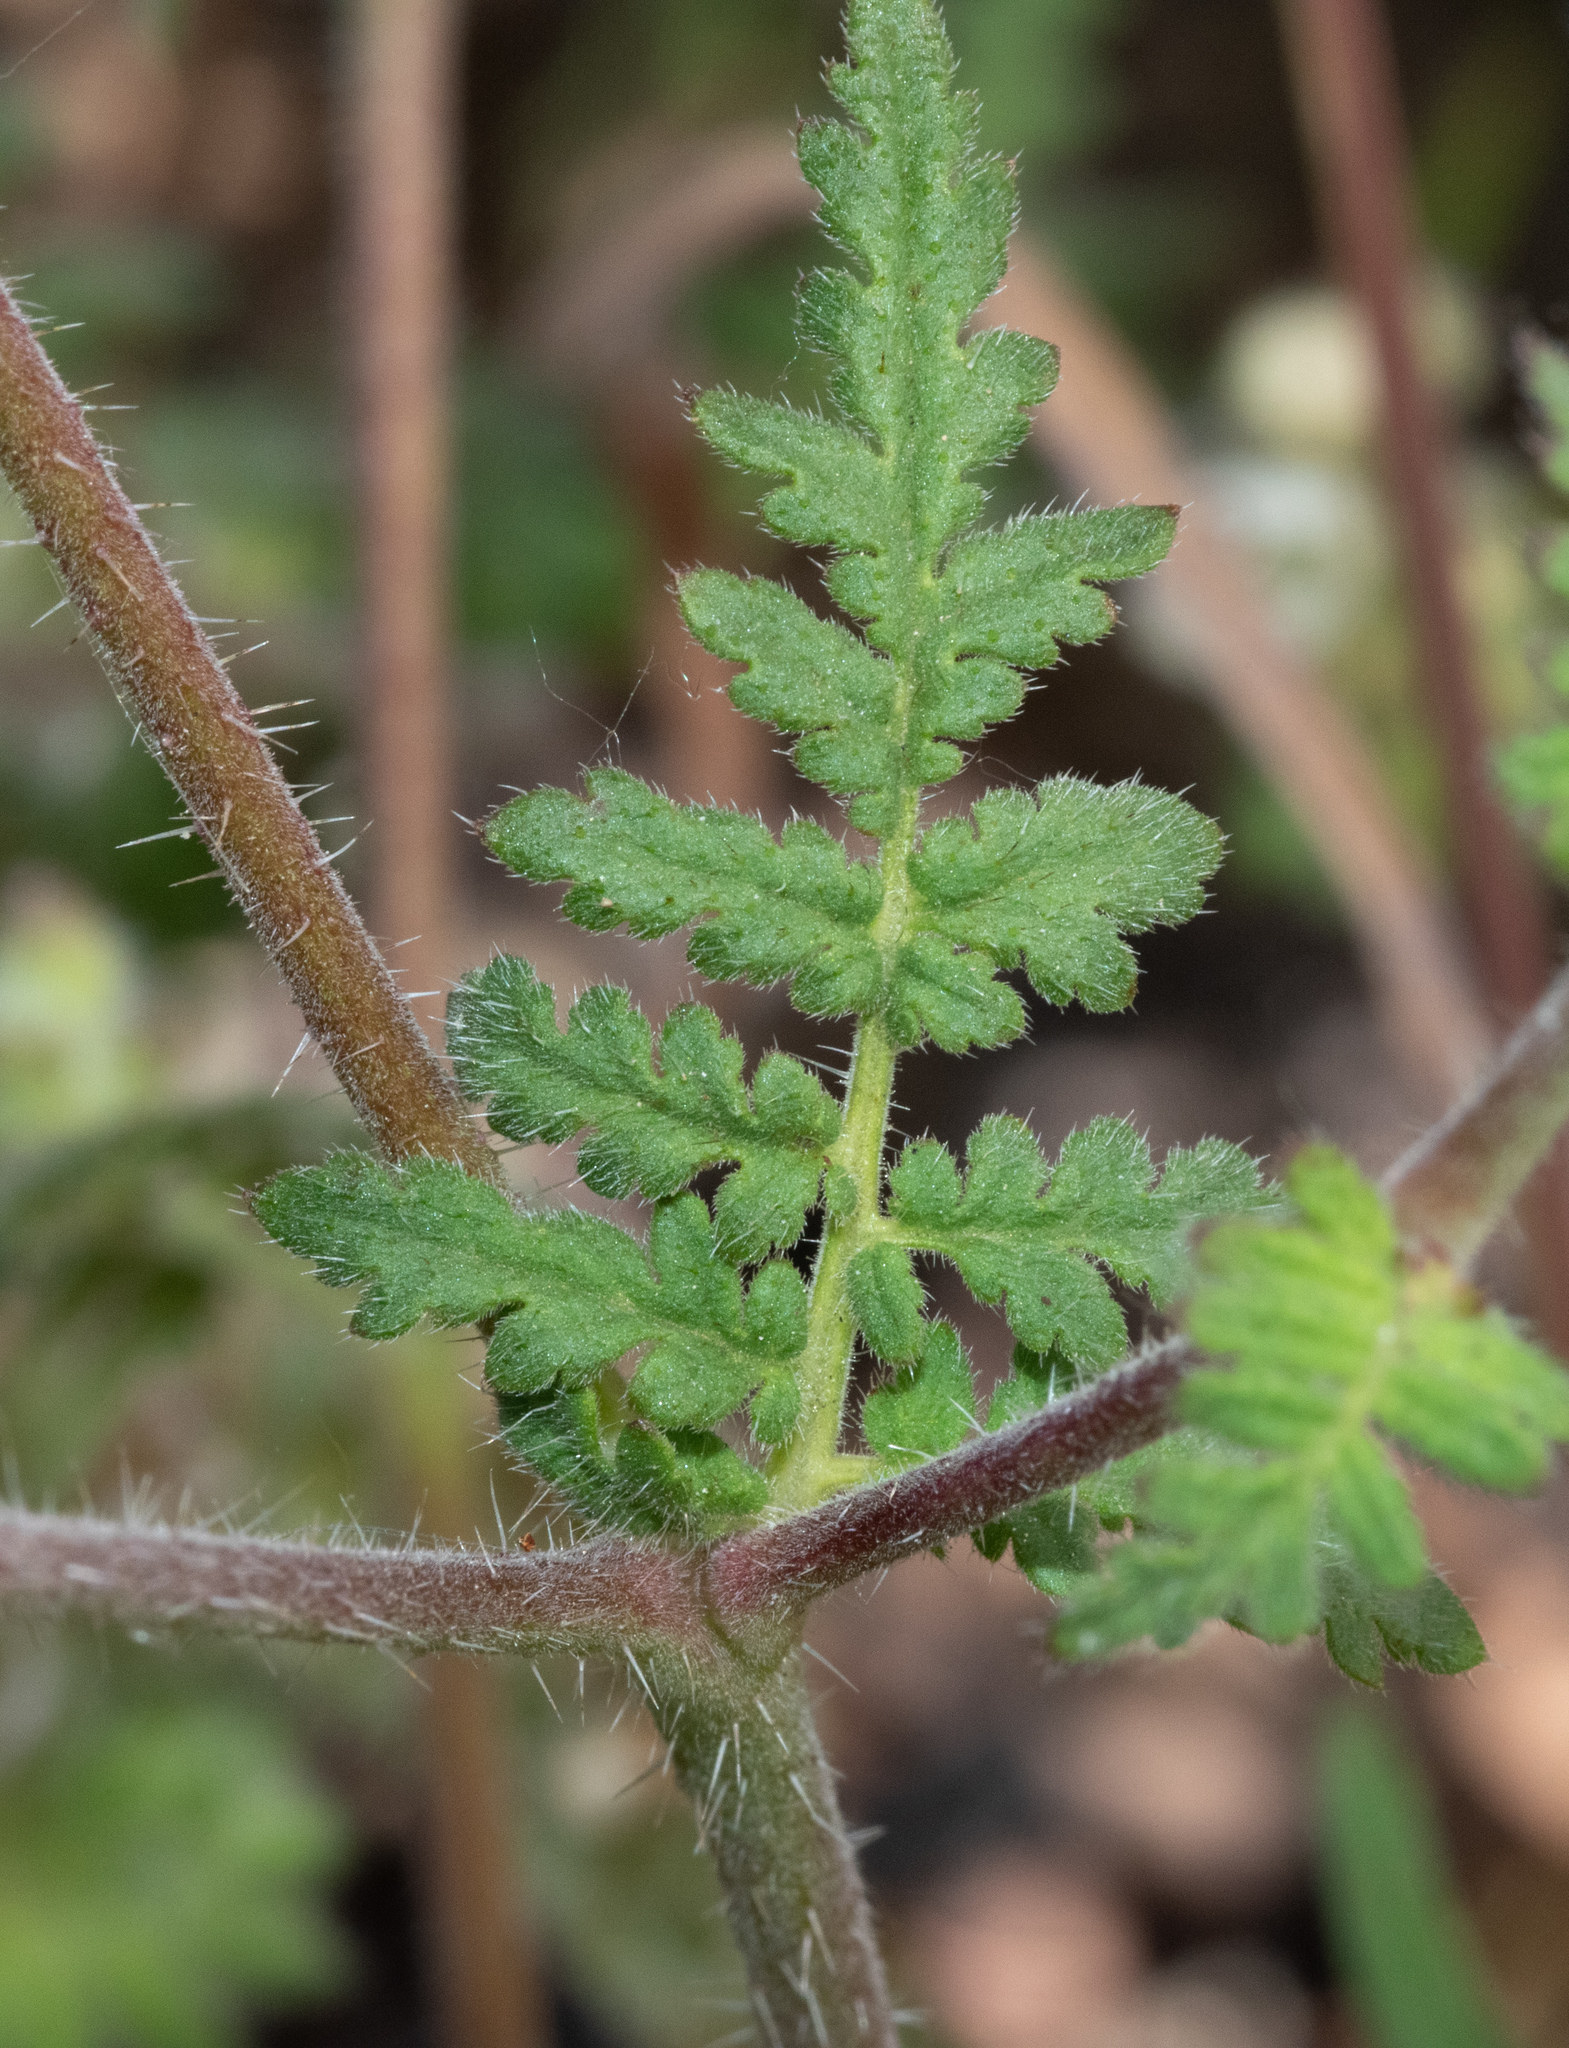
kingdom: Plantae
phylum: Tracheophyta
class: Magnoliopsida
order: Boraginales
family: Hydrophyllaceae
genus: Phacelia
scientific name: Phacelia distans
